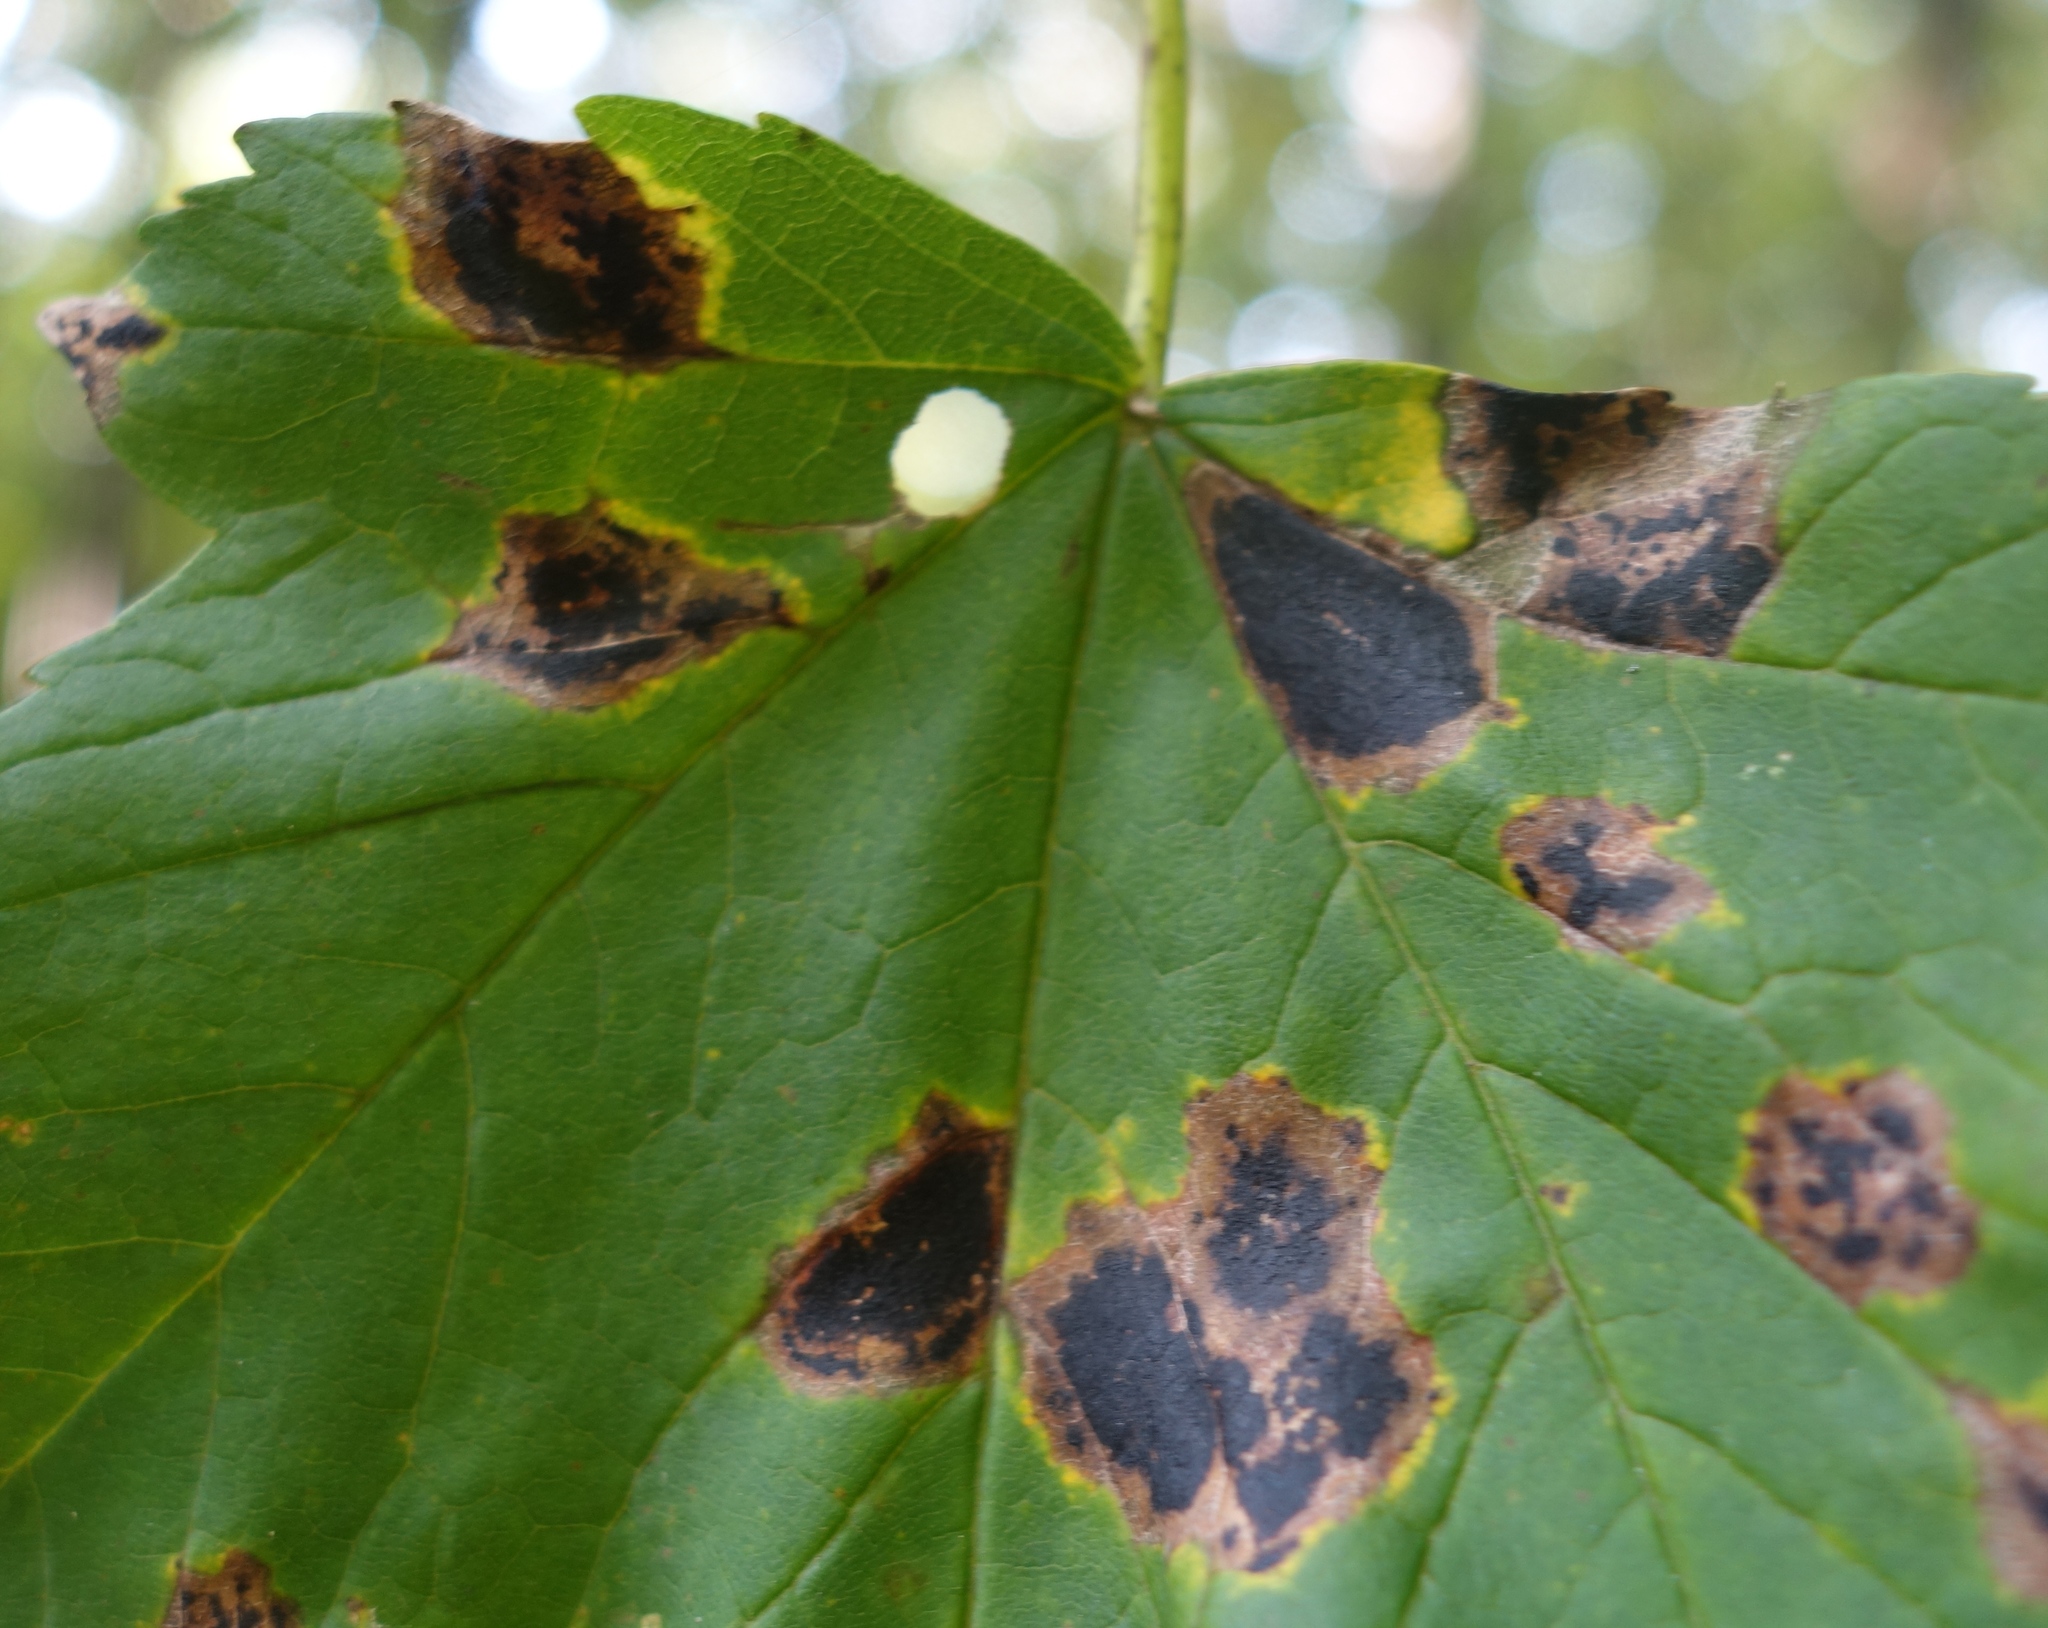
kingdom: Fungi
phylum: Ascomycota
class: Leotiomycetes
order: Rhytismatales
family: Rhytismataceae
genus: Rhytisma
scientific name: Rhytisma acerinum
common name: European tar spot
